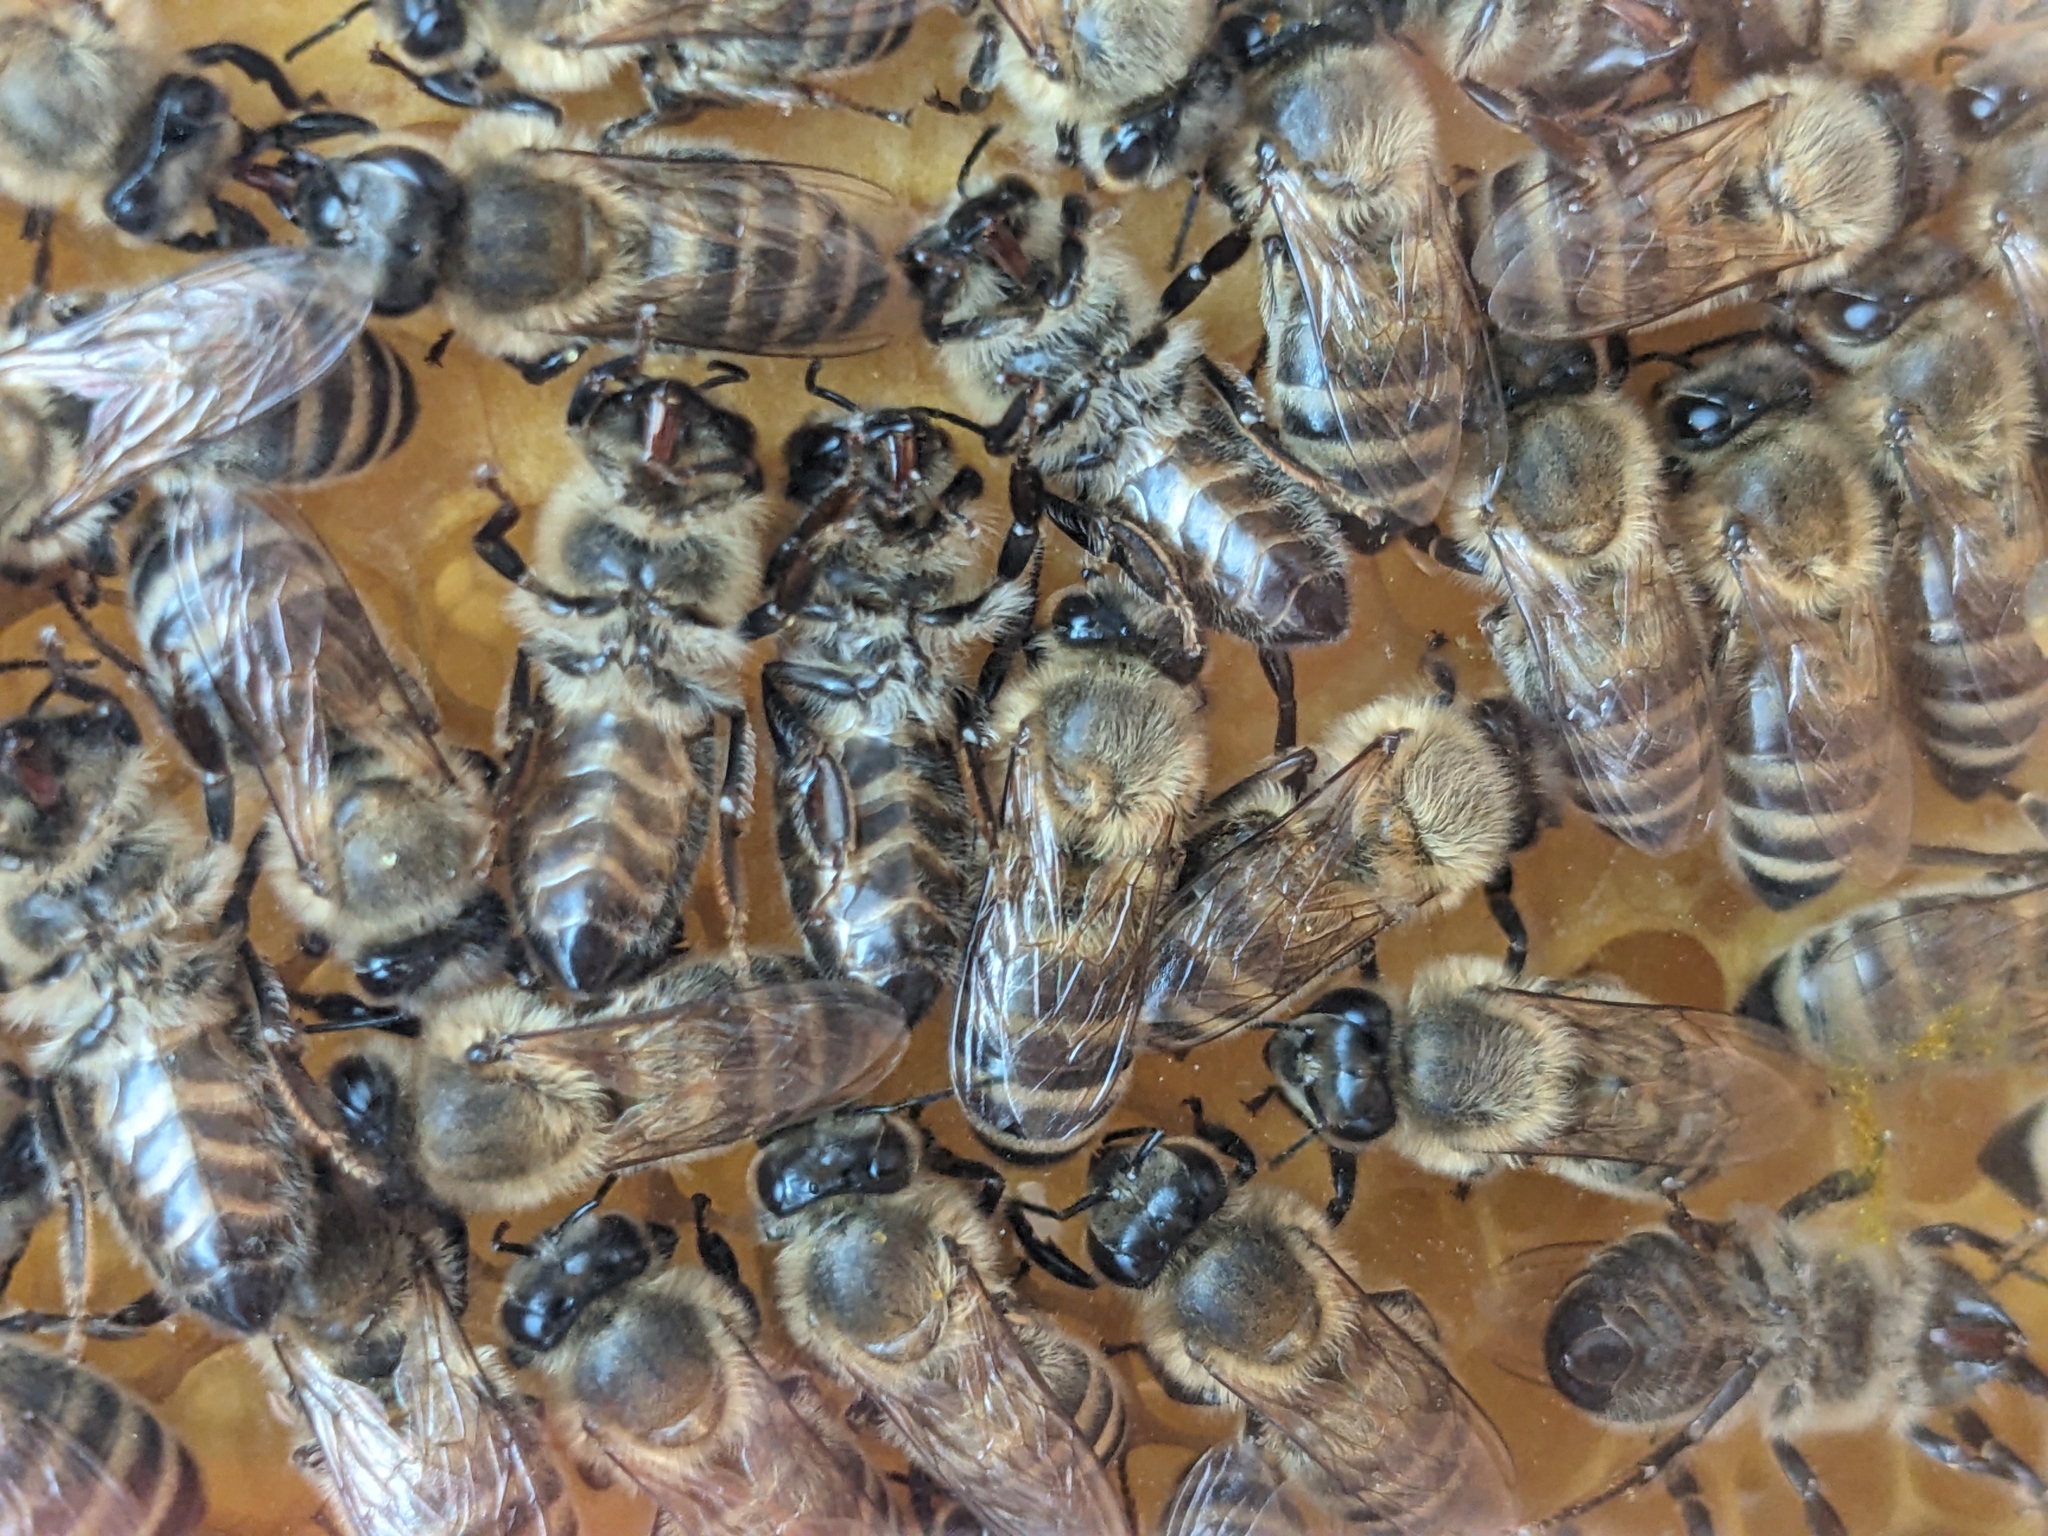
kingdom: Animalia
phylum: Arthropoda
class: Insecta
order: Hymenoptera
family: Apidae
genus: Apis
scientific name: Apis mellifera
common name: Honey bee
